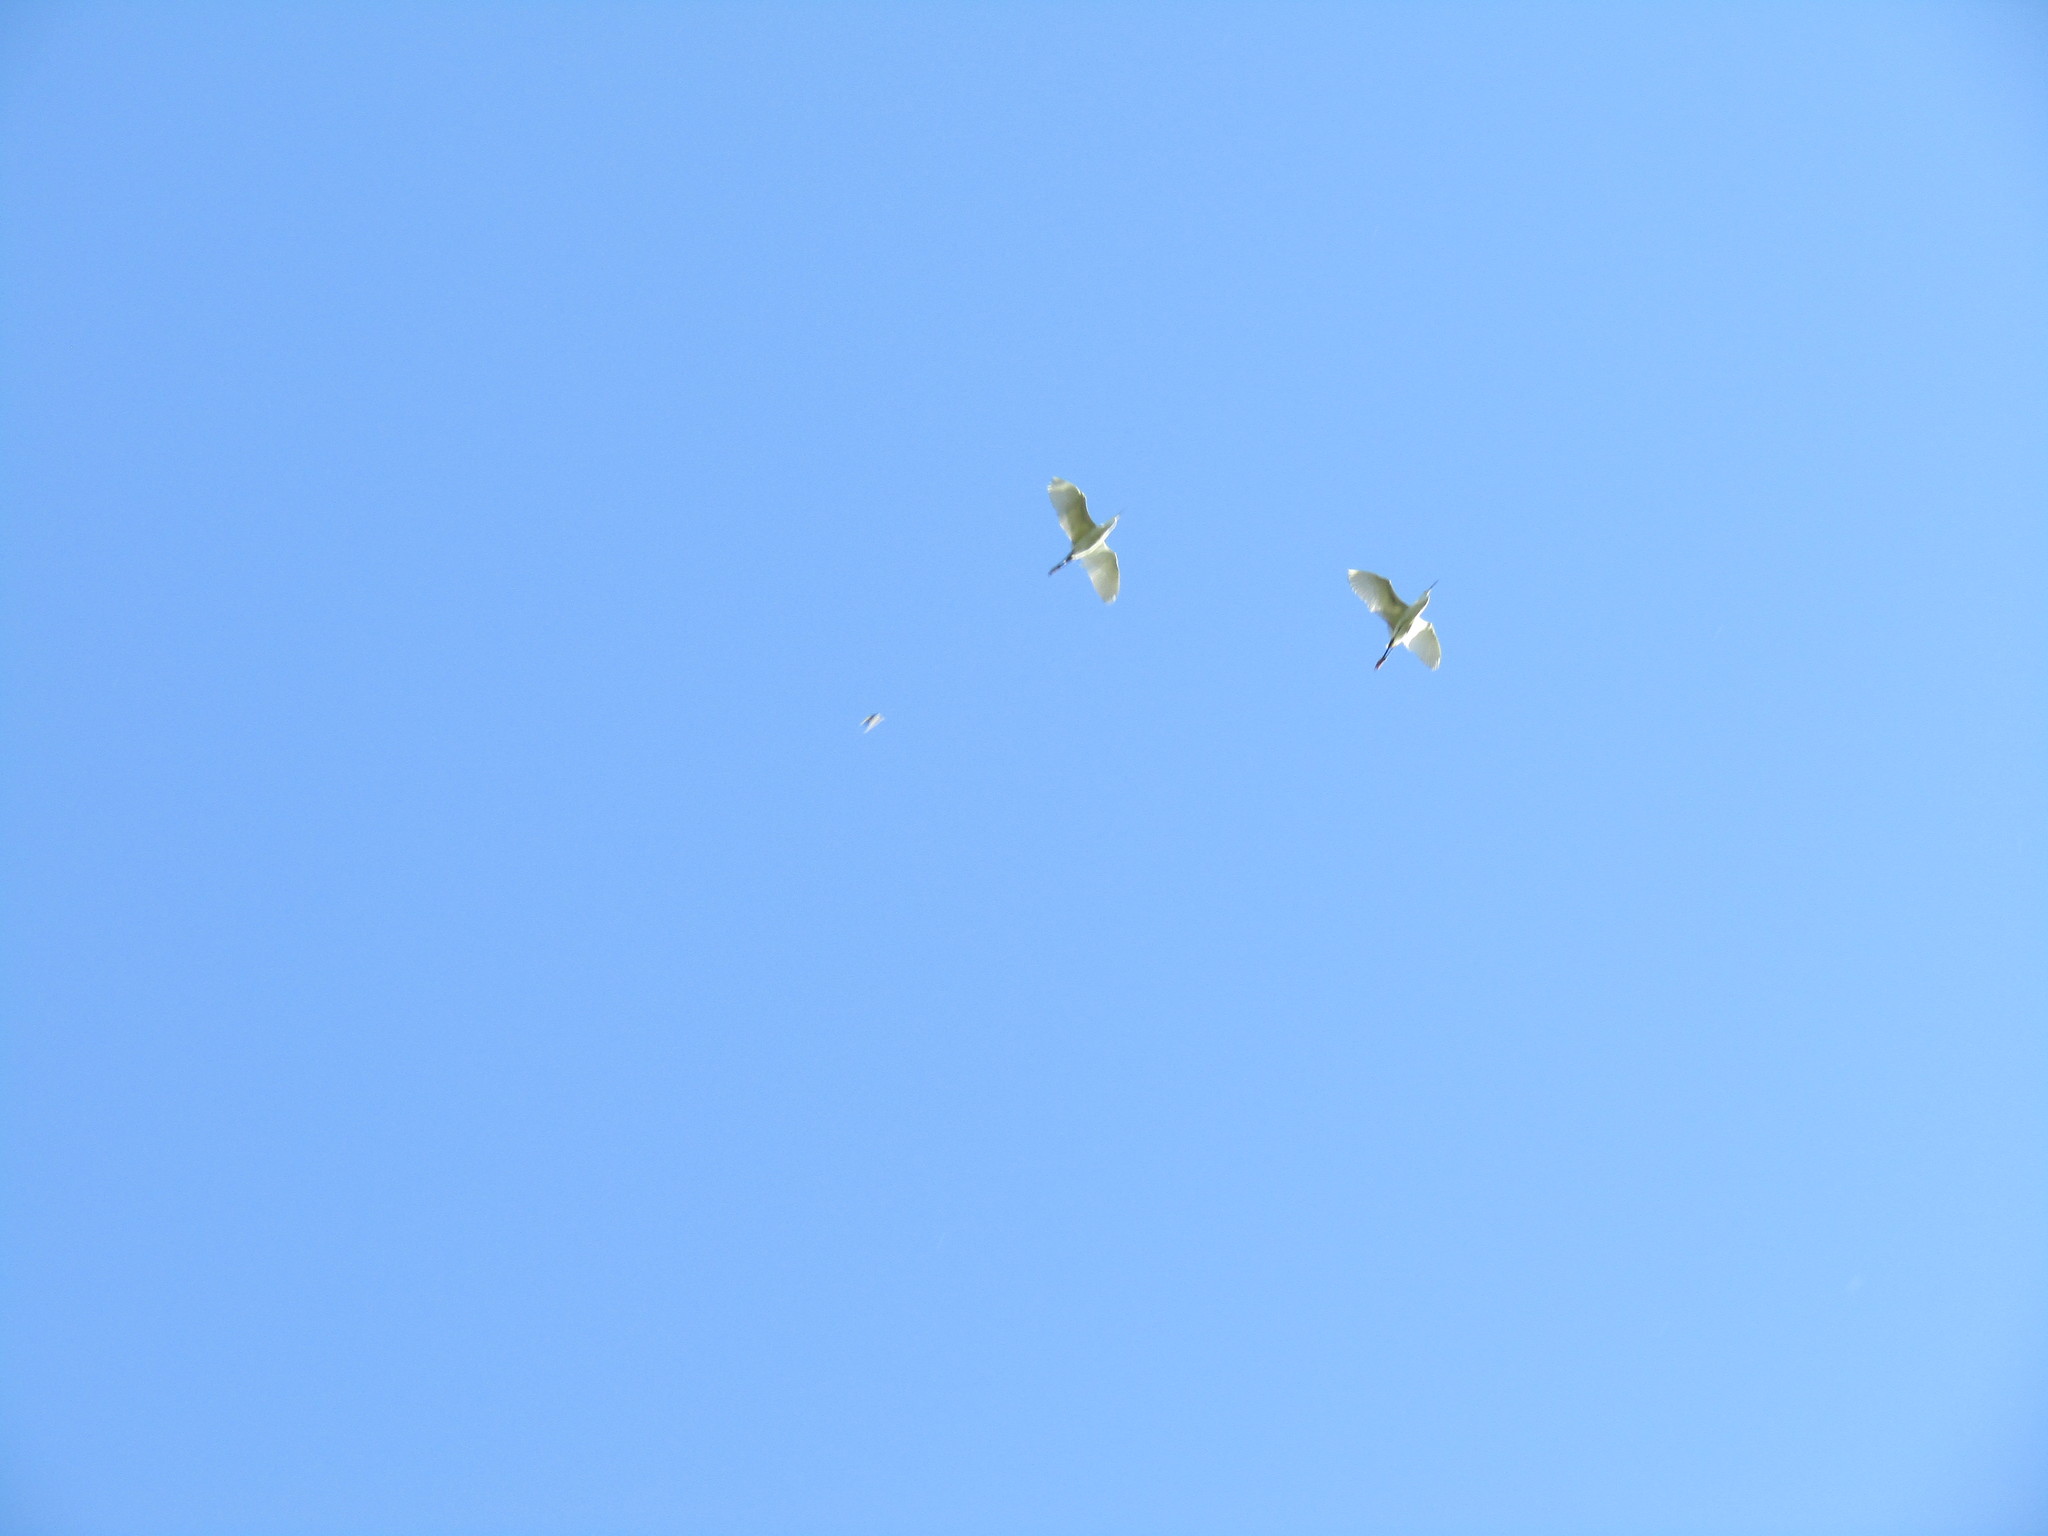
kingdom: Animalia
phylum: Chordata
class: Aves
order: Pelecaniformes
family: Ardeidae
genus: Ardea
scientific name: Ardea alba
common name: Great egret
